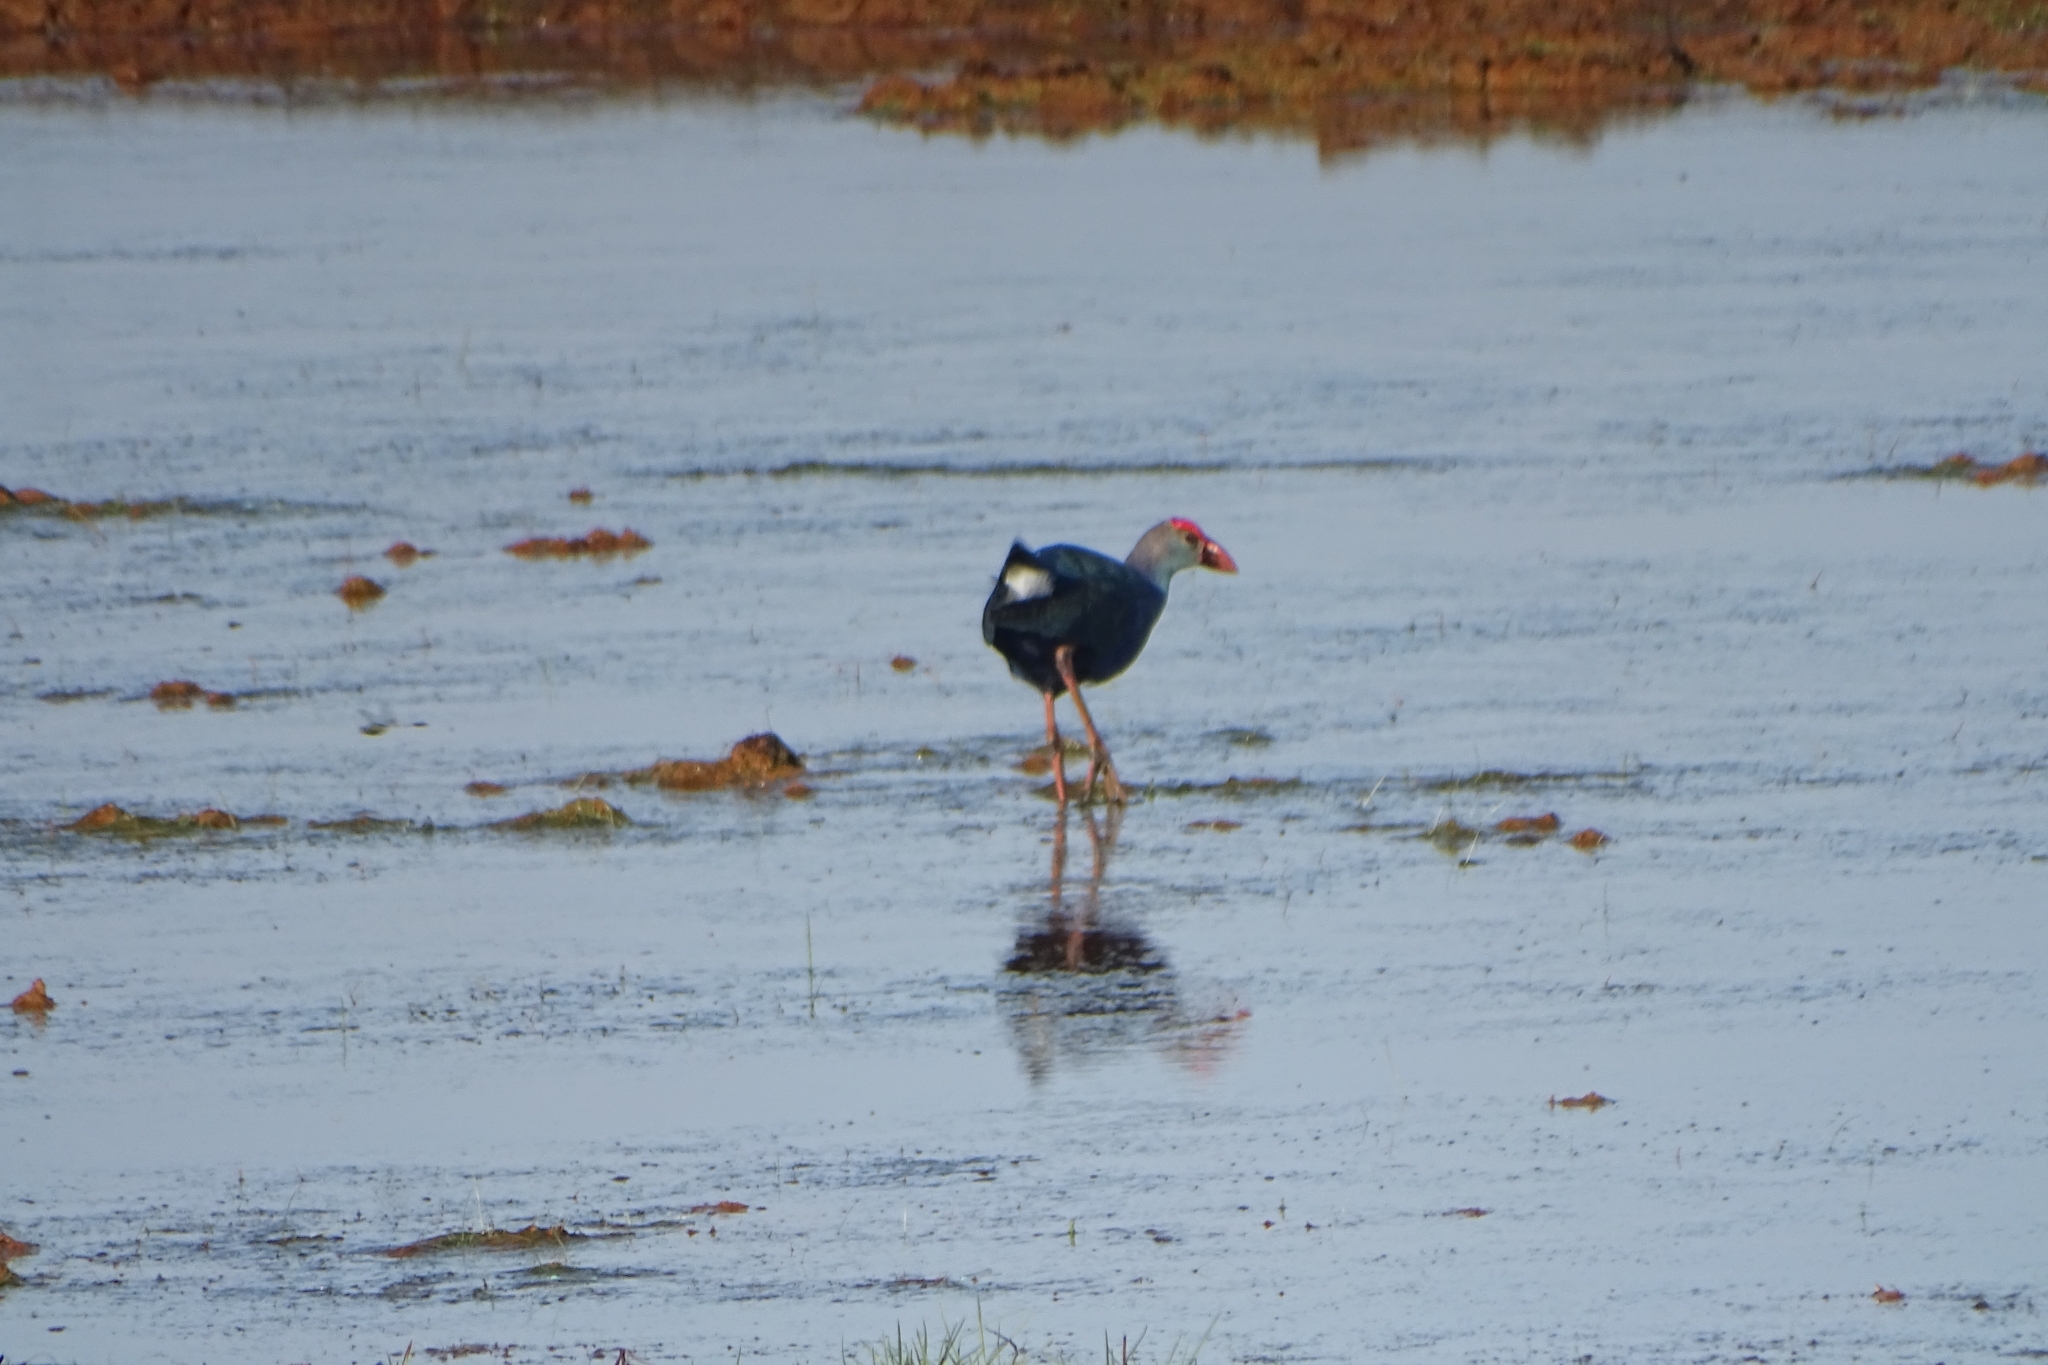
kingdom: Animalia
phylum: Chordata
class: Aves
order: Gruiformes
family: Rallidae
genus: Porphyrio
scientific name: Porphyrio porphyrio
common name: Purple swamphen
